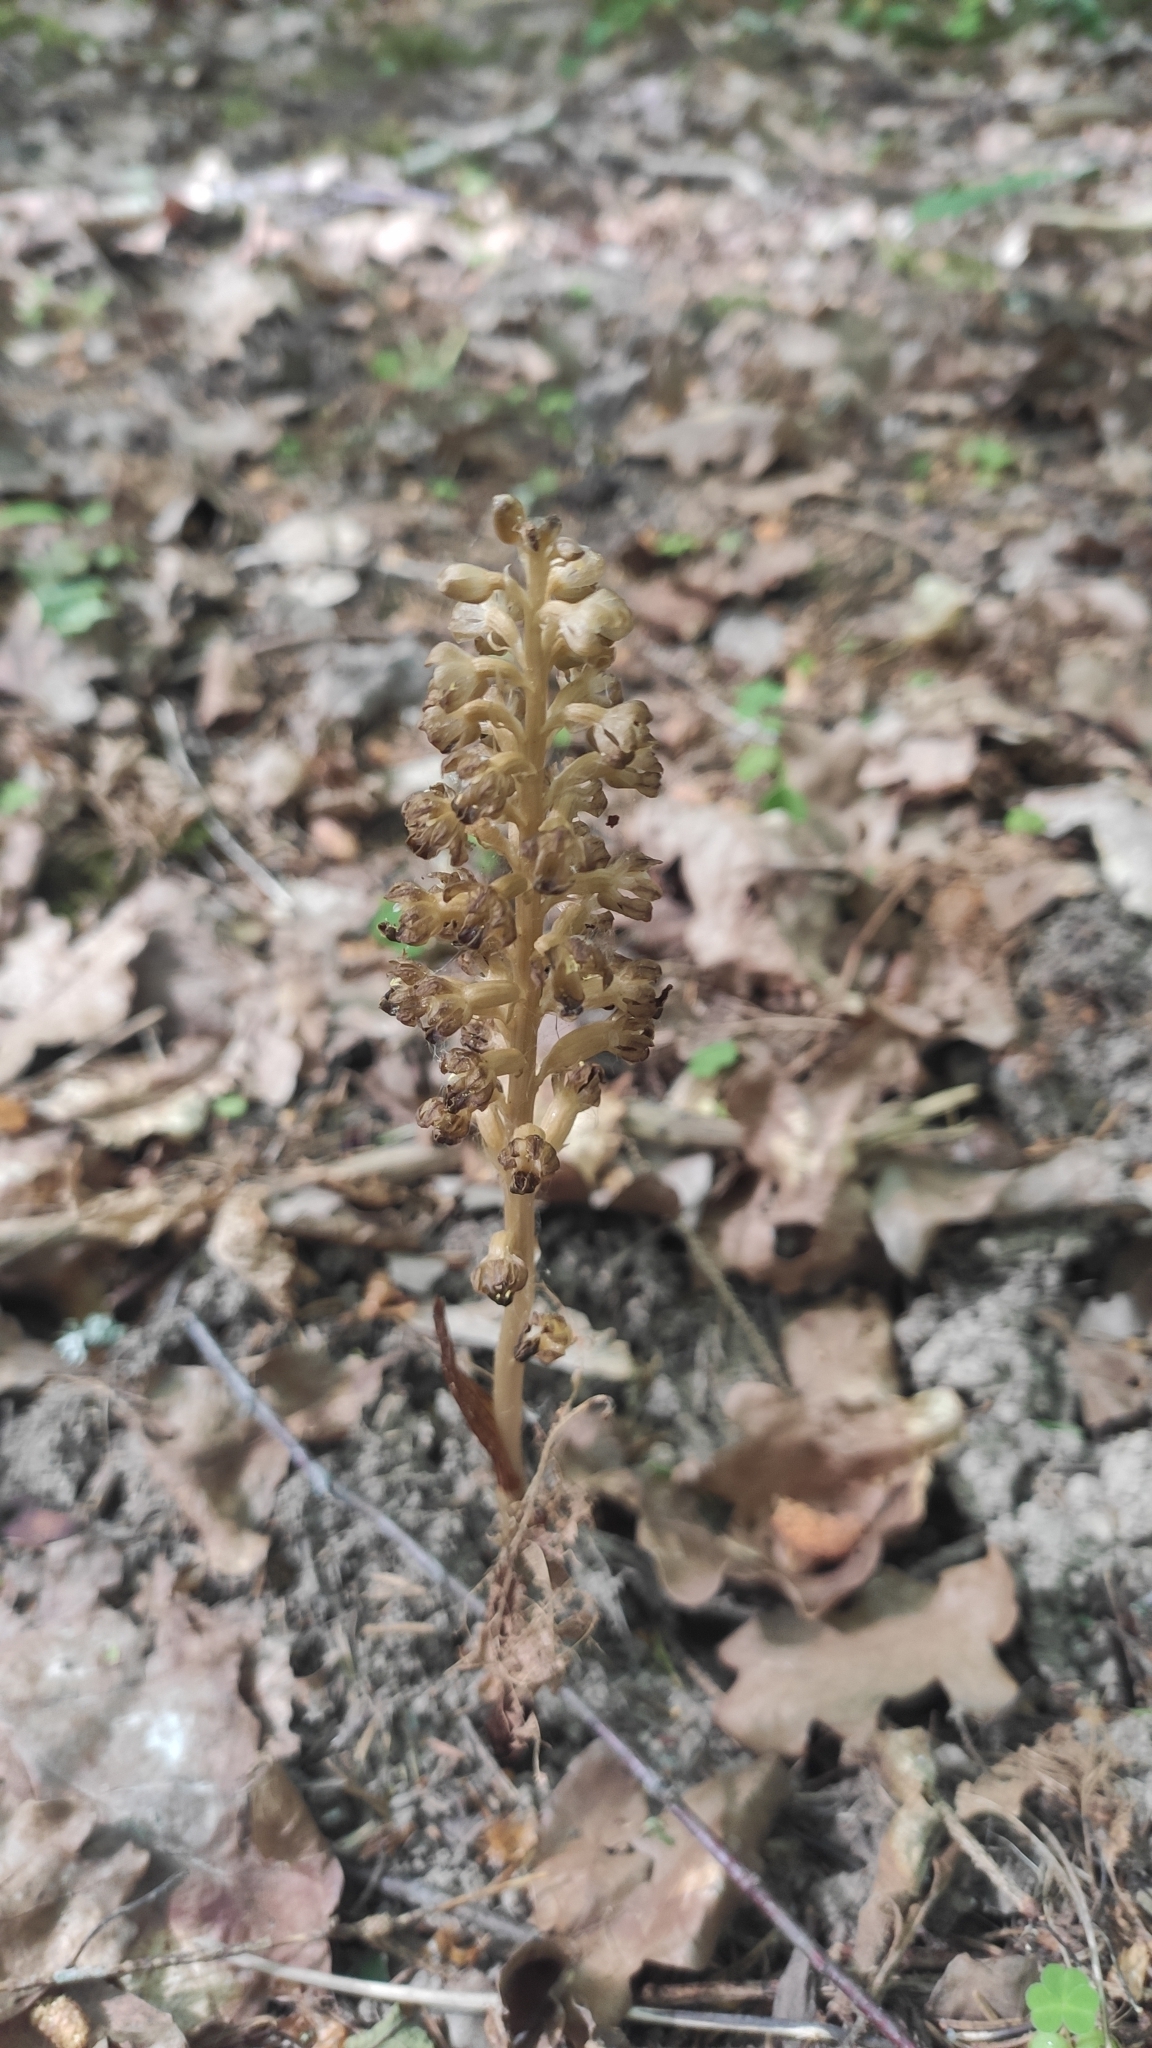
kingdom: Plantae
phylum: Tracheophyta
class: Liliopsida
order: Asparagales
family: Orchidaceae
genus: Neottia
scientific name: Neottia nidus-avis
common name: Bird's-nest orchid
